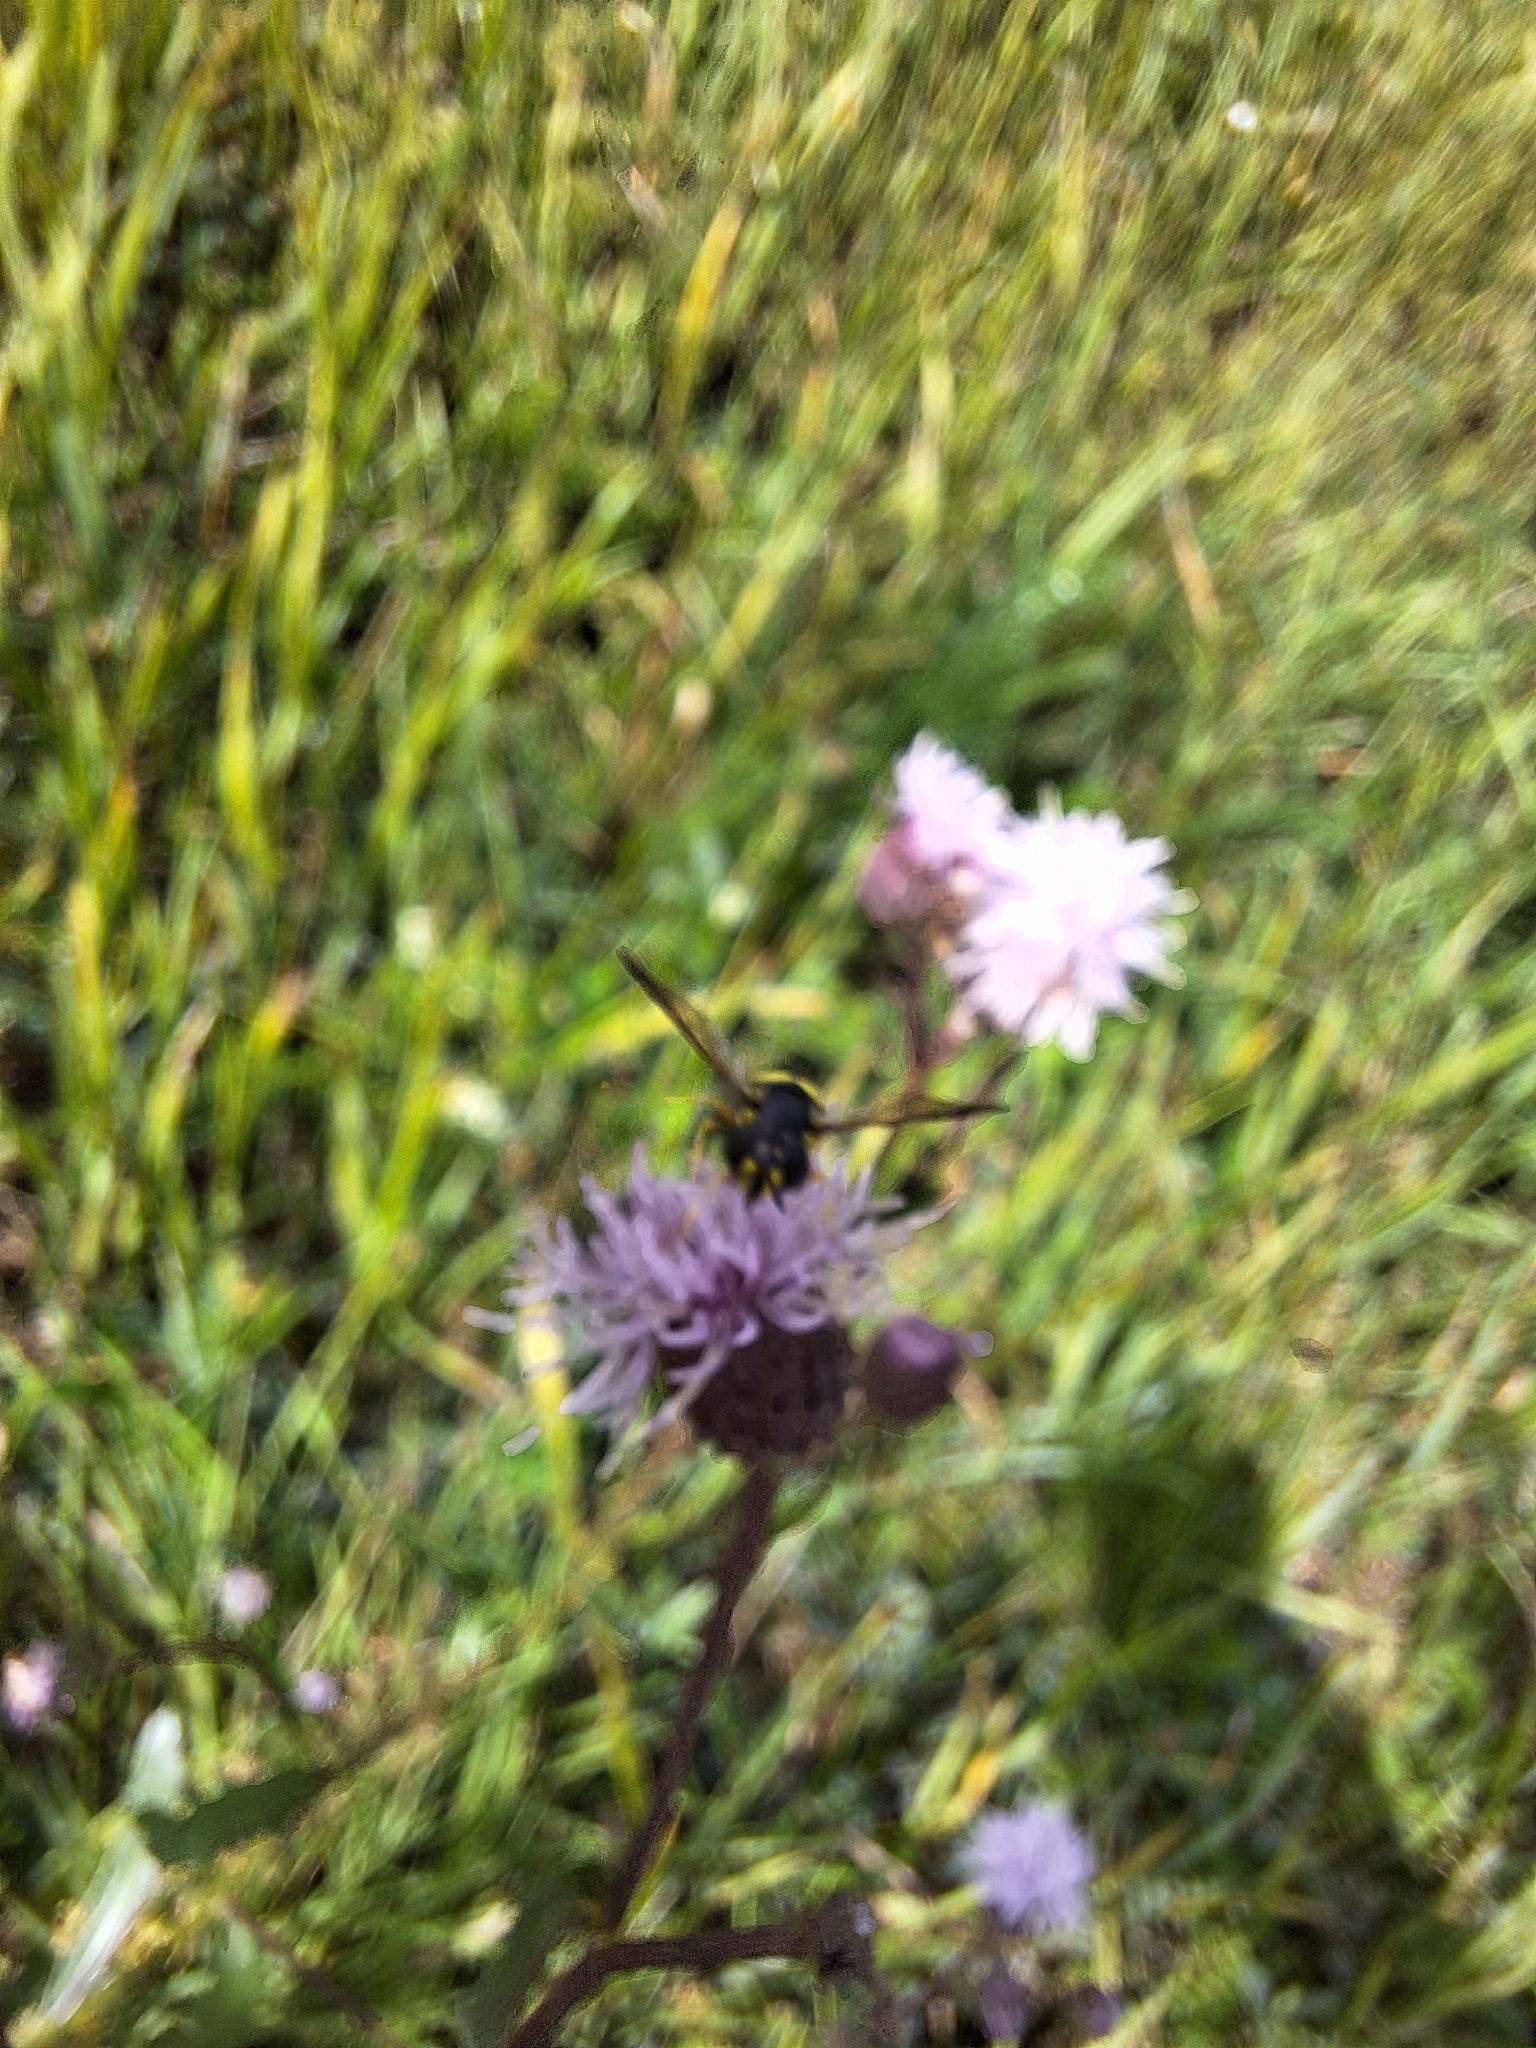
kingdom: Animalia
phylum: Arthropoda
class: Insecta
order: Diptera
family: Syrphidae
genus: Chrysotoxum
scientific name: Chrysotoxum bicincta
